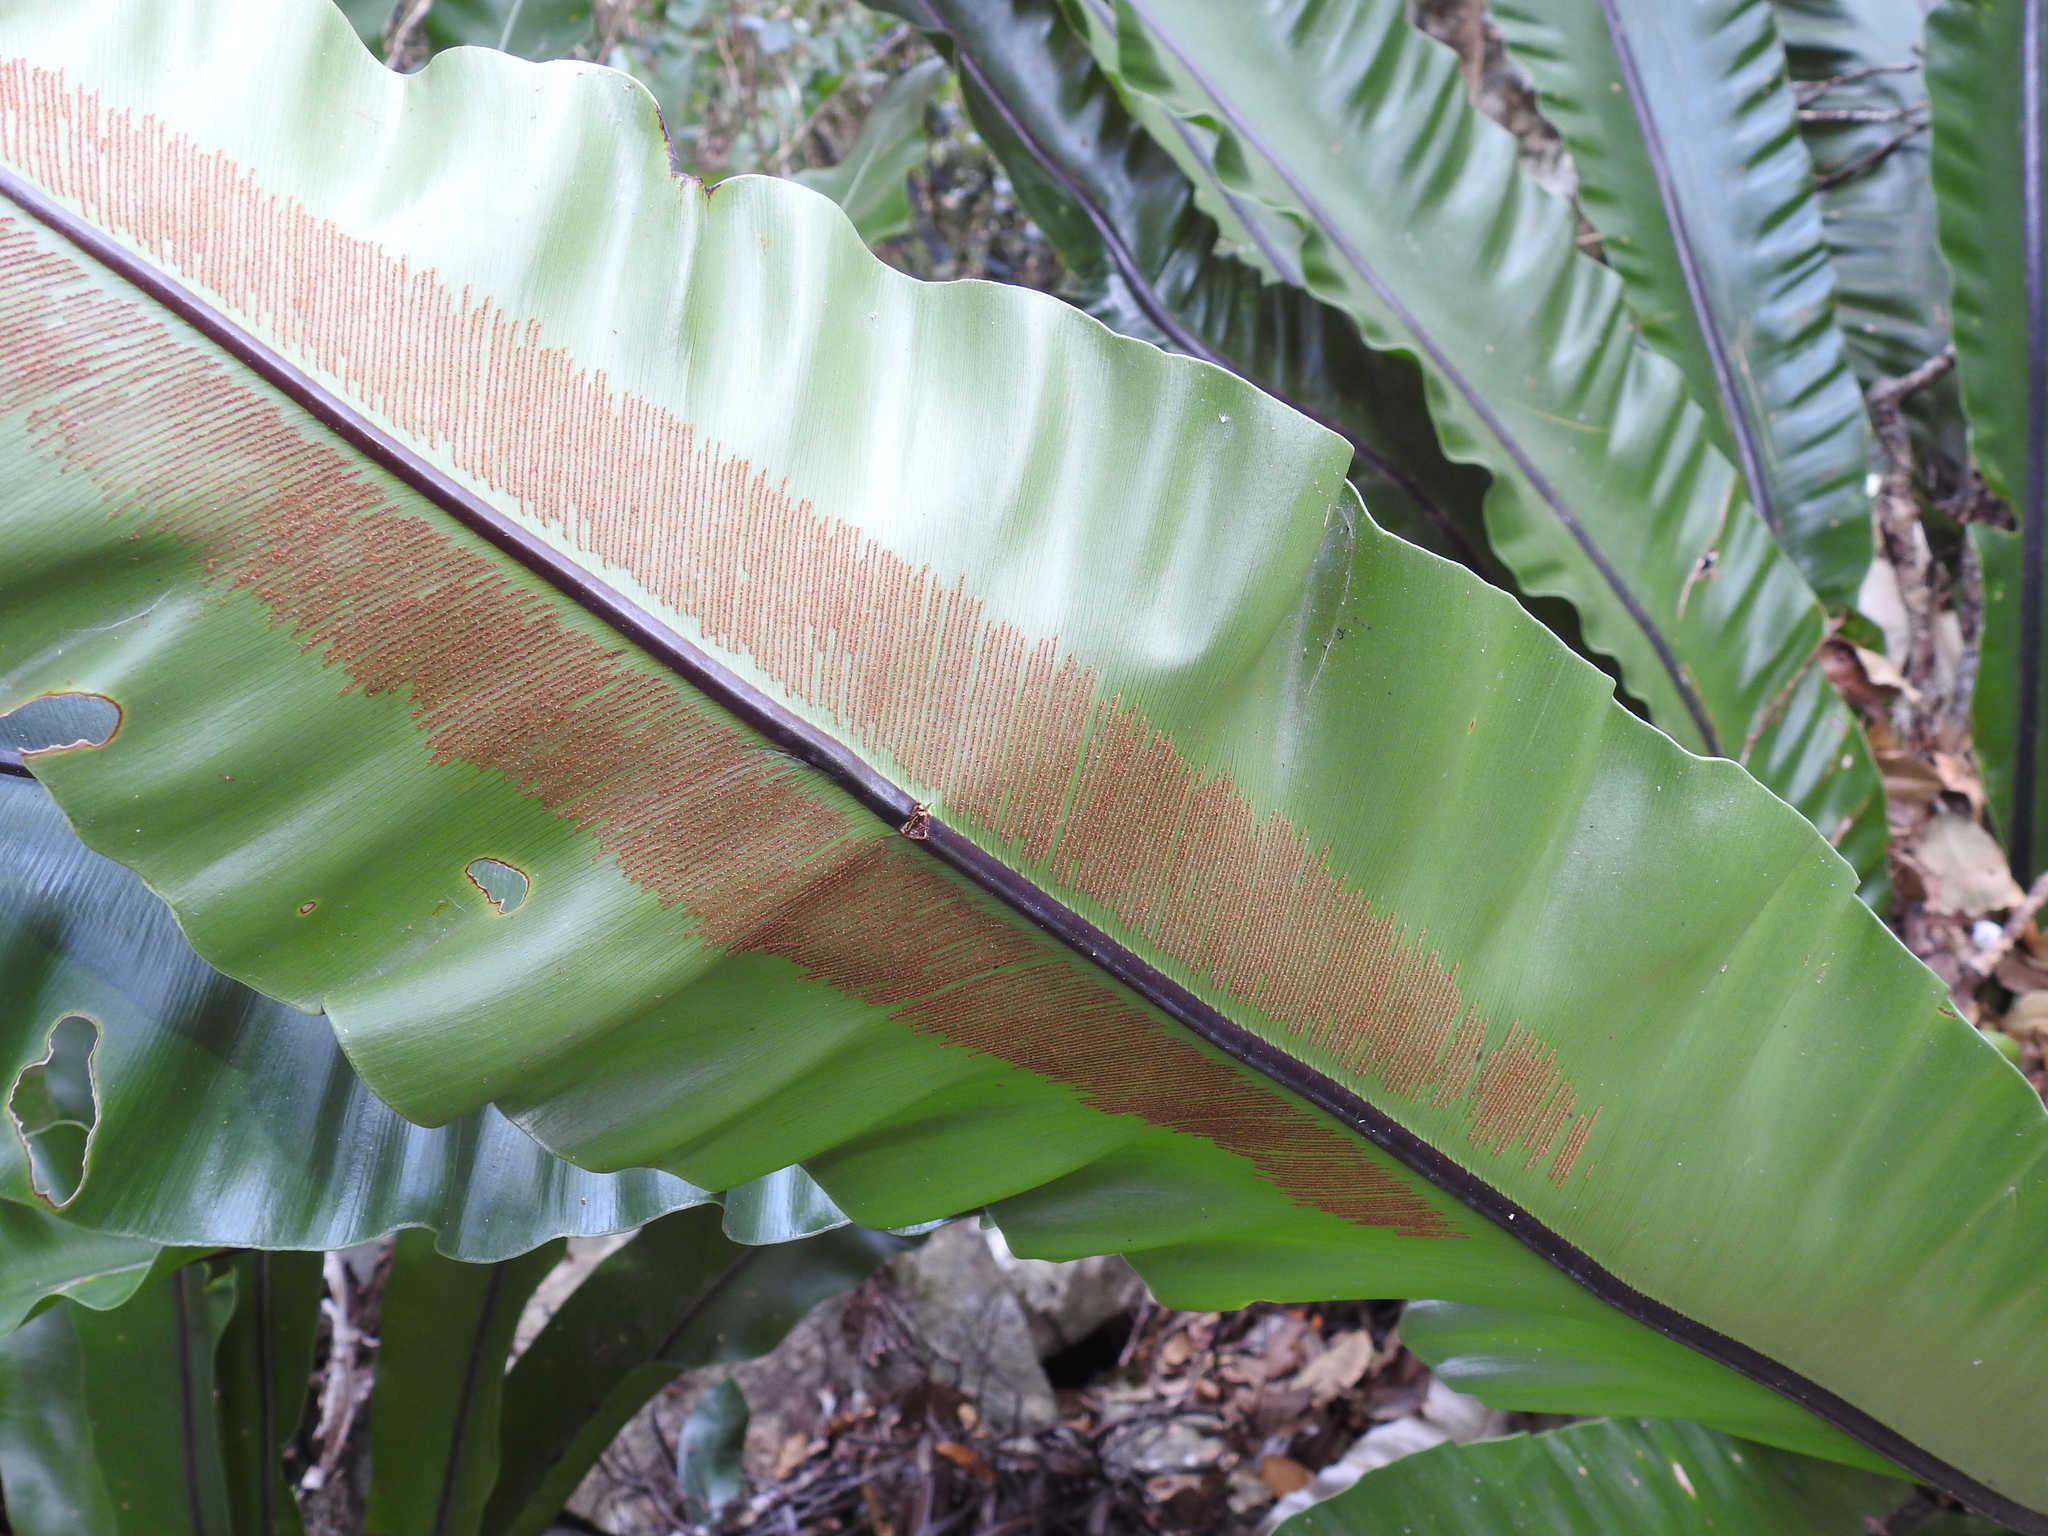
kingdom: Plantae
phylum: Tracheophyta
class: Polypodiopsida
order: Polypodiales
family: Aspleniaceae
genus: Asplenium
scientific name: Asplenium australasicum
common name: Bird's-nest fern
